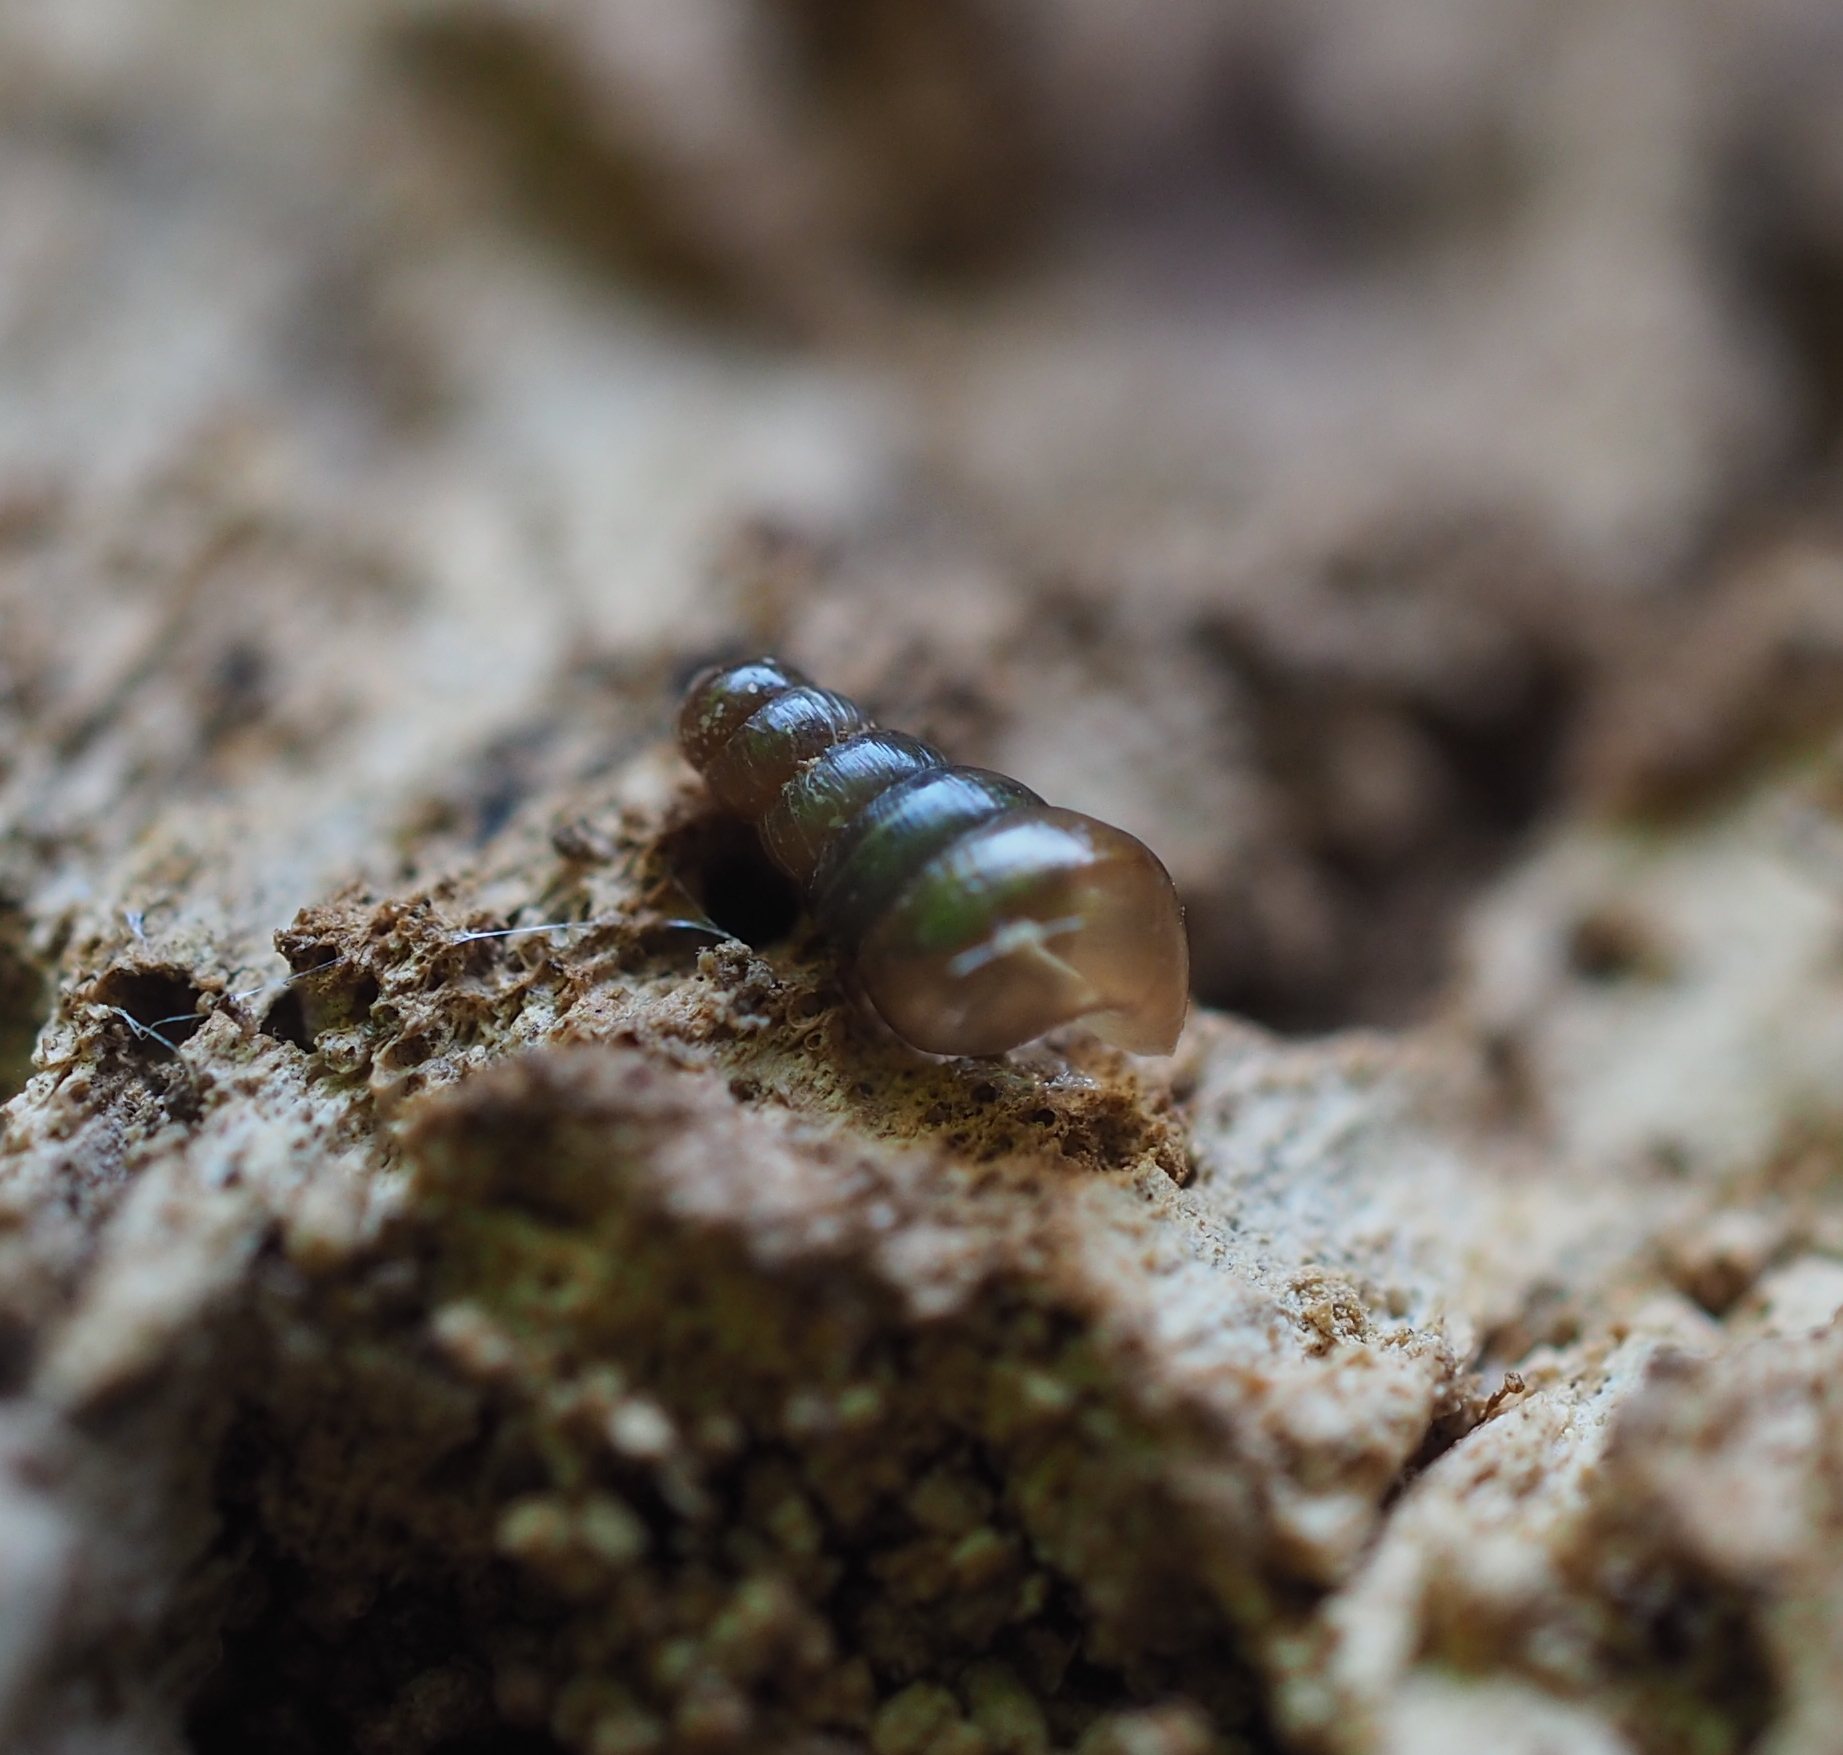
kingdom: Animalia
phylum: Mollusca
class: Gastropoda
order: Stylommatophora
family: Clausiliidae
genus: Cochlodina
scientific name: Cochlodina laminata
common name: Plaited door snail
